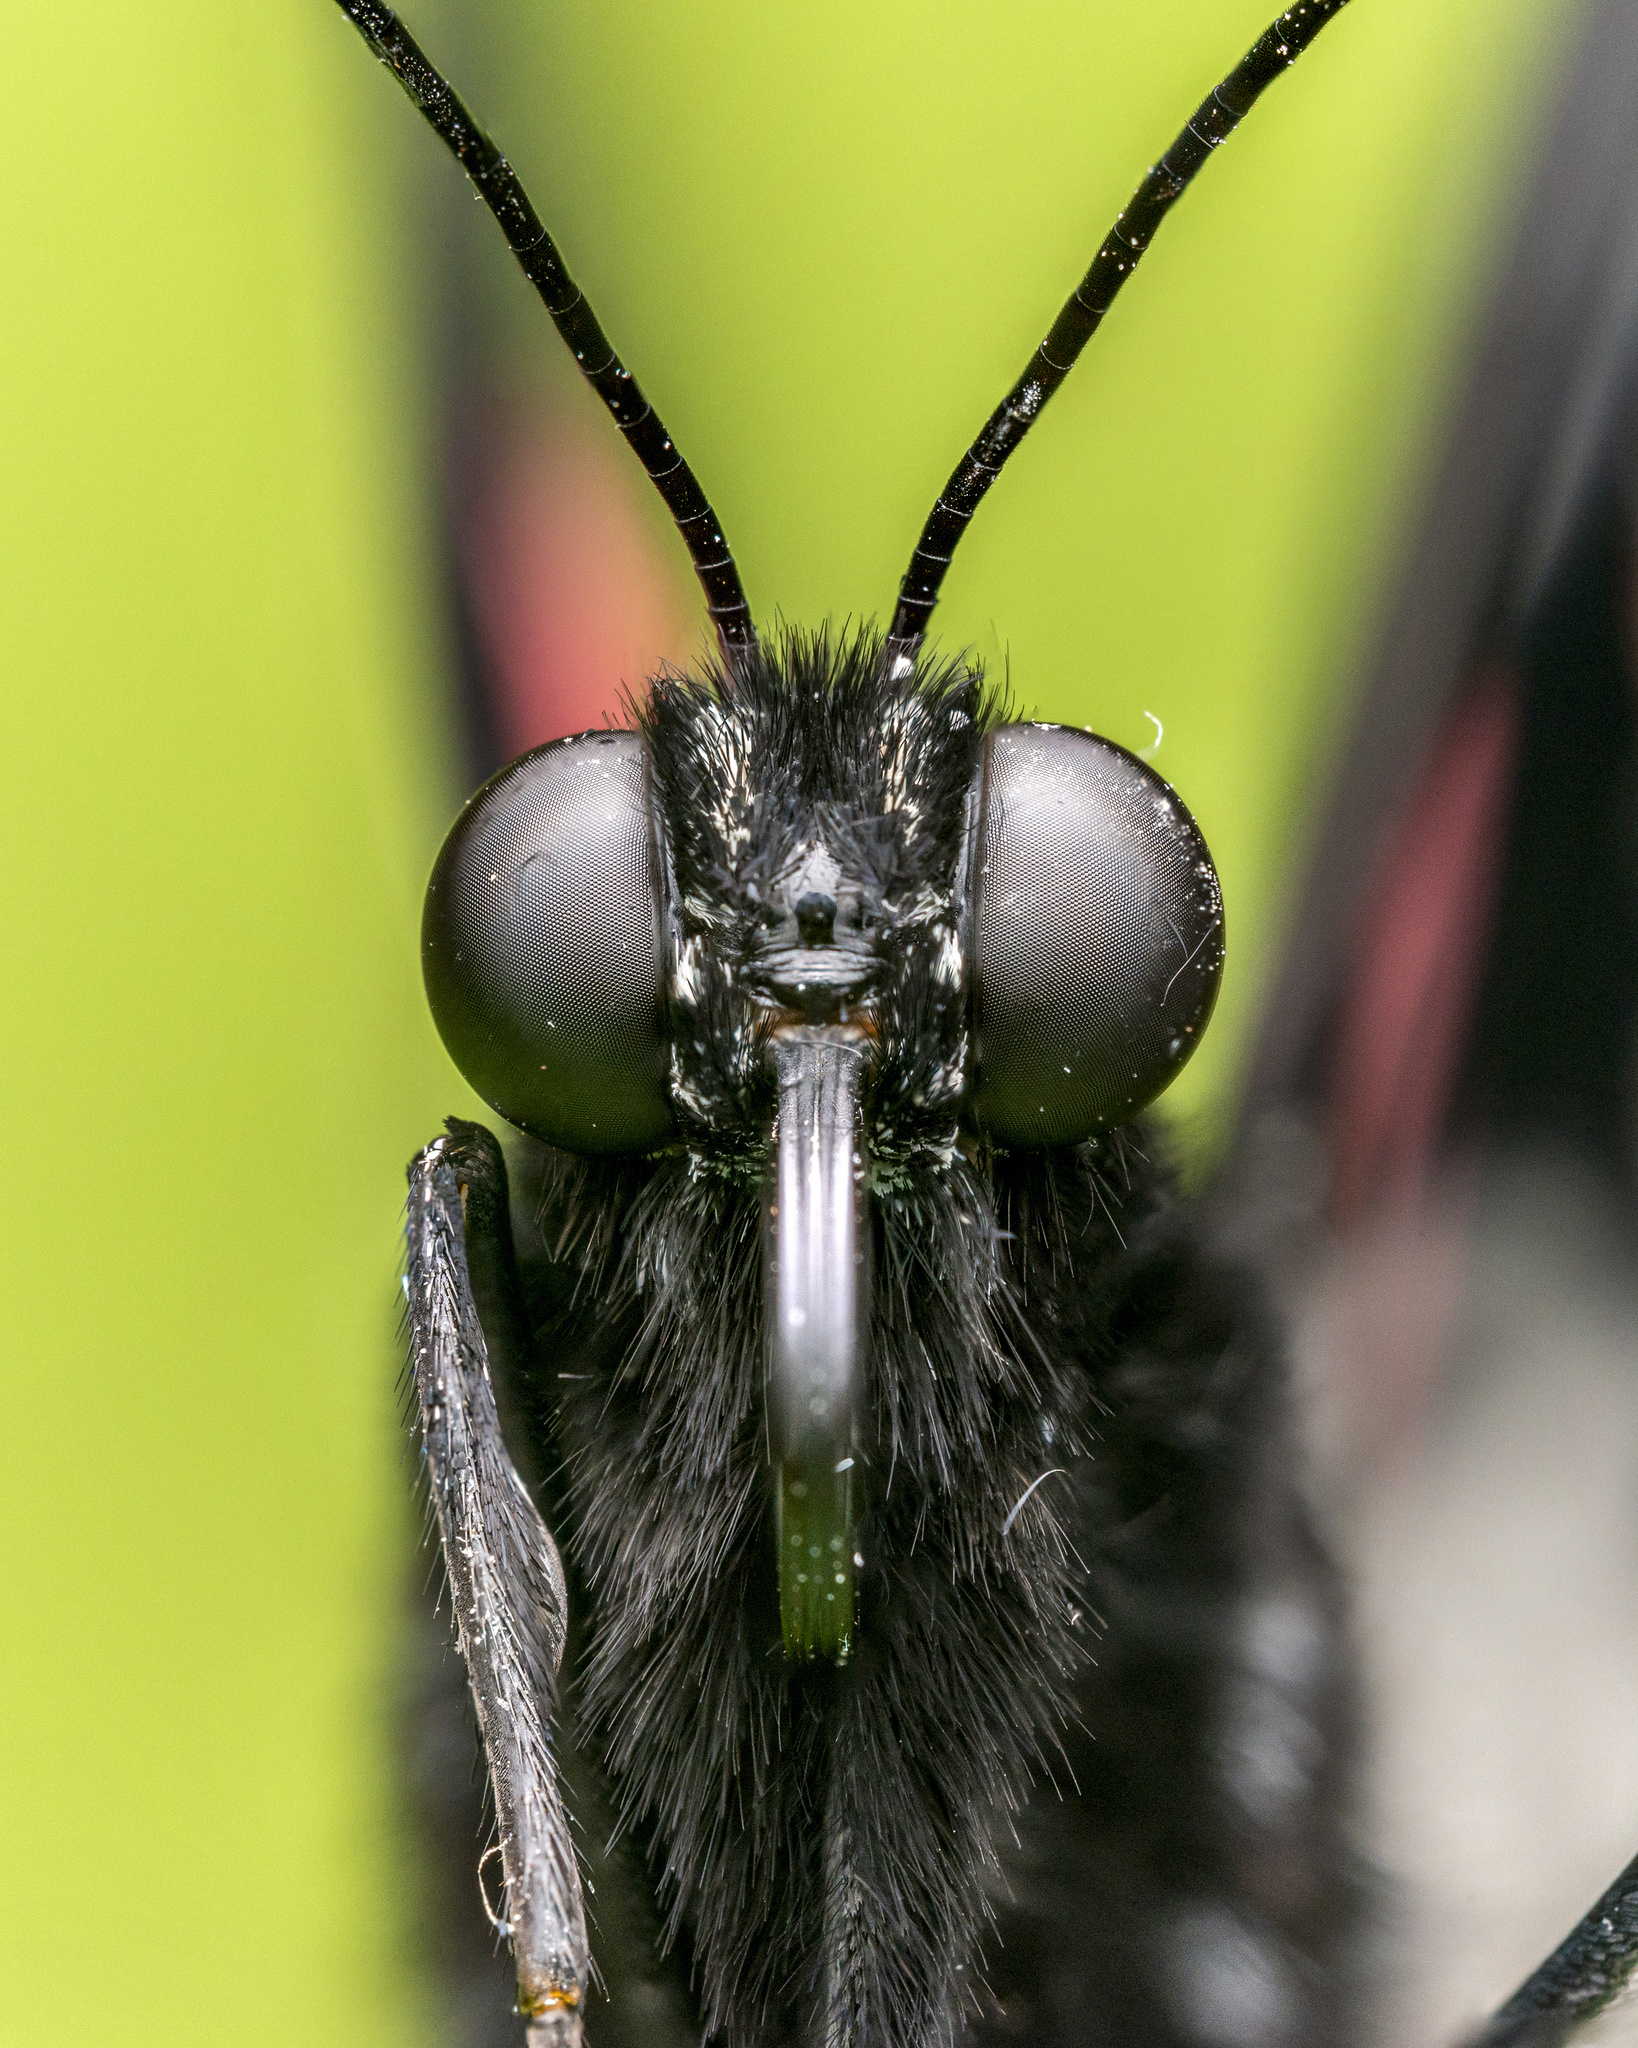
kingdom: Animalia
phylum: Arthropoda
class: Insecta
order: Lepidoptera
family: Papilionidae
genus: Papilio
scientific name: Papilio memnon
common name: Great mormon
